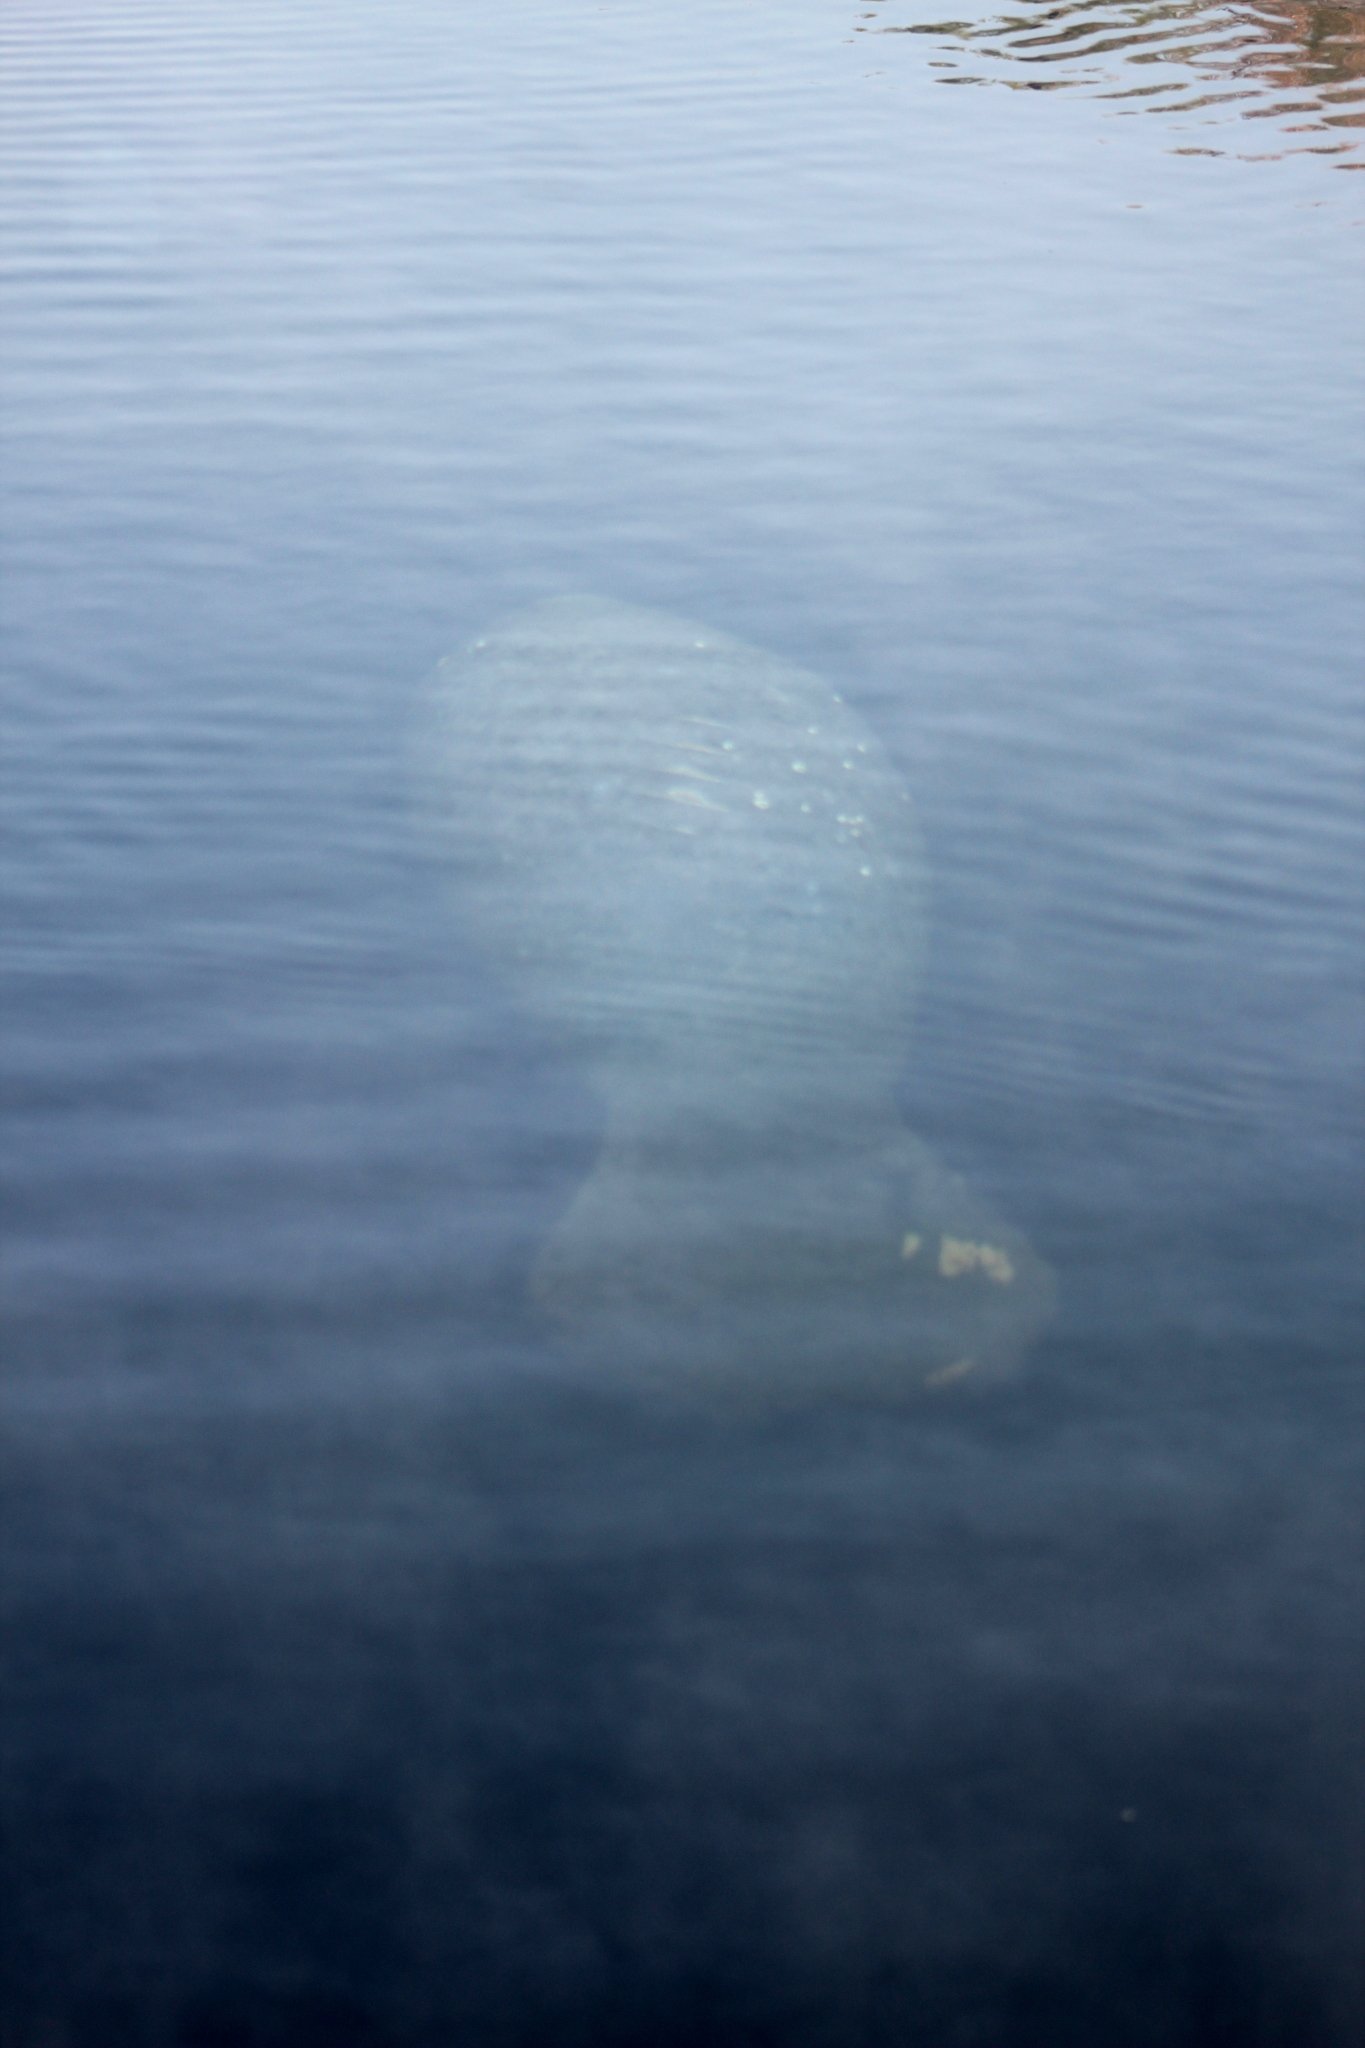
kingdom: Animalia
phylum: Chordata
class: Mammalia
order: Sirenia
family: Trichechidae
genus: Trichechus
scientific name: Trichechus manatus
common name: West indian manatee
